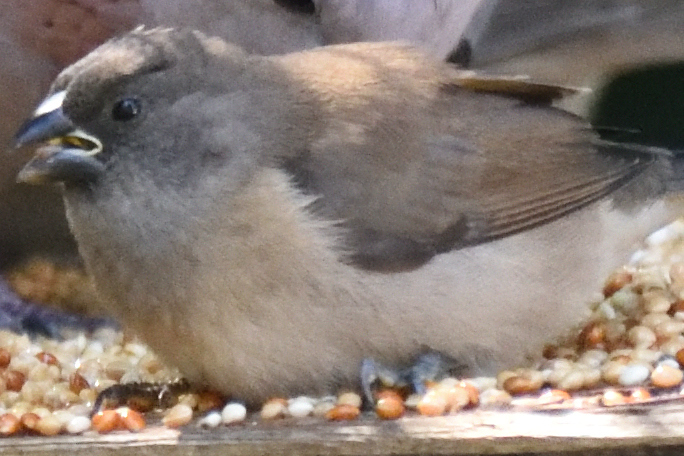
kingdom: Animalia
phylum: Chordata
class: Aves
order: Passeriformes
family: Estrildidae
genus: Lonchura
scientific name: Lonchura cucullata
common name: Bronze mannikin
